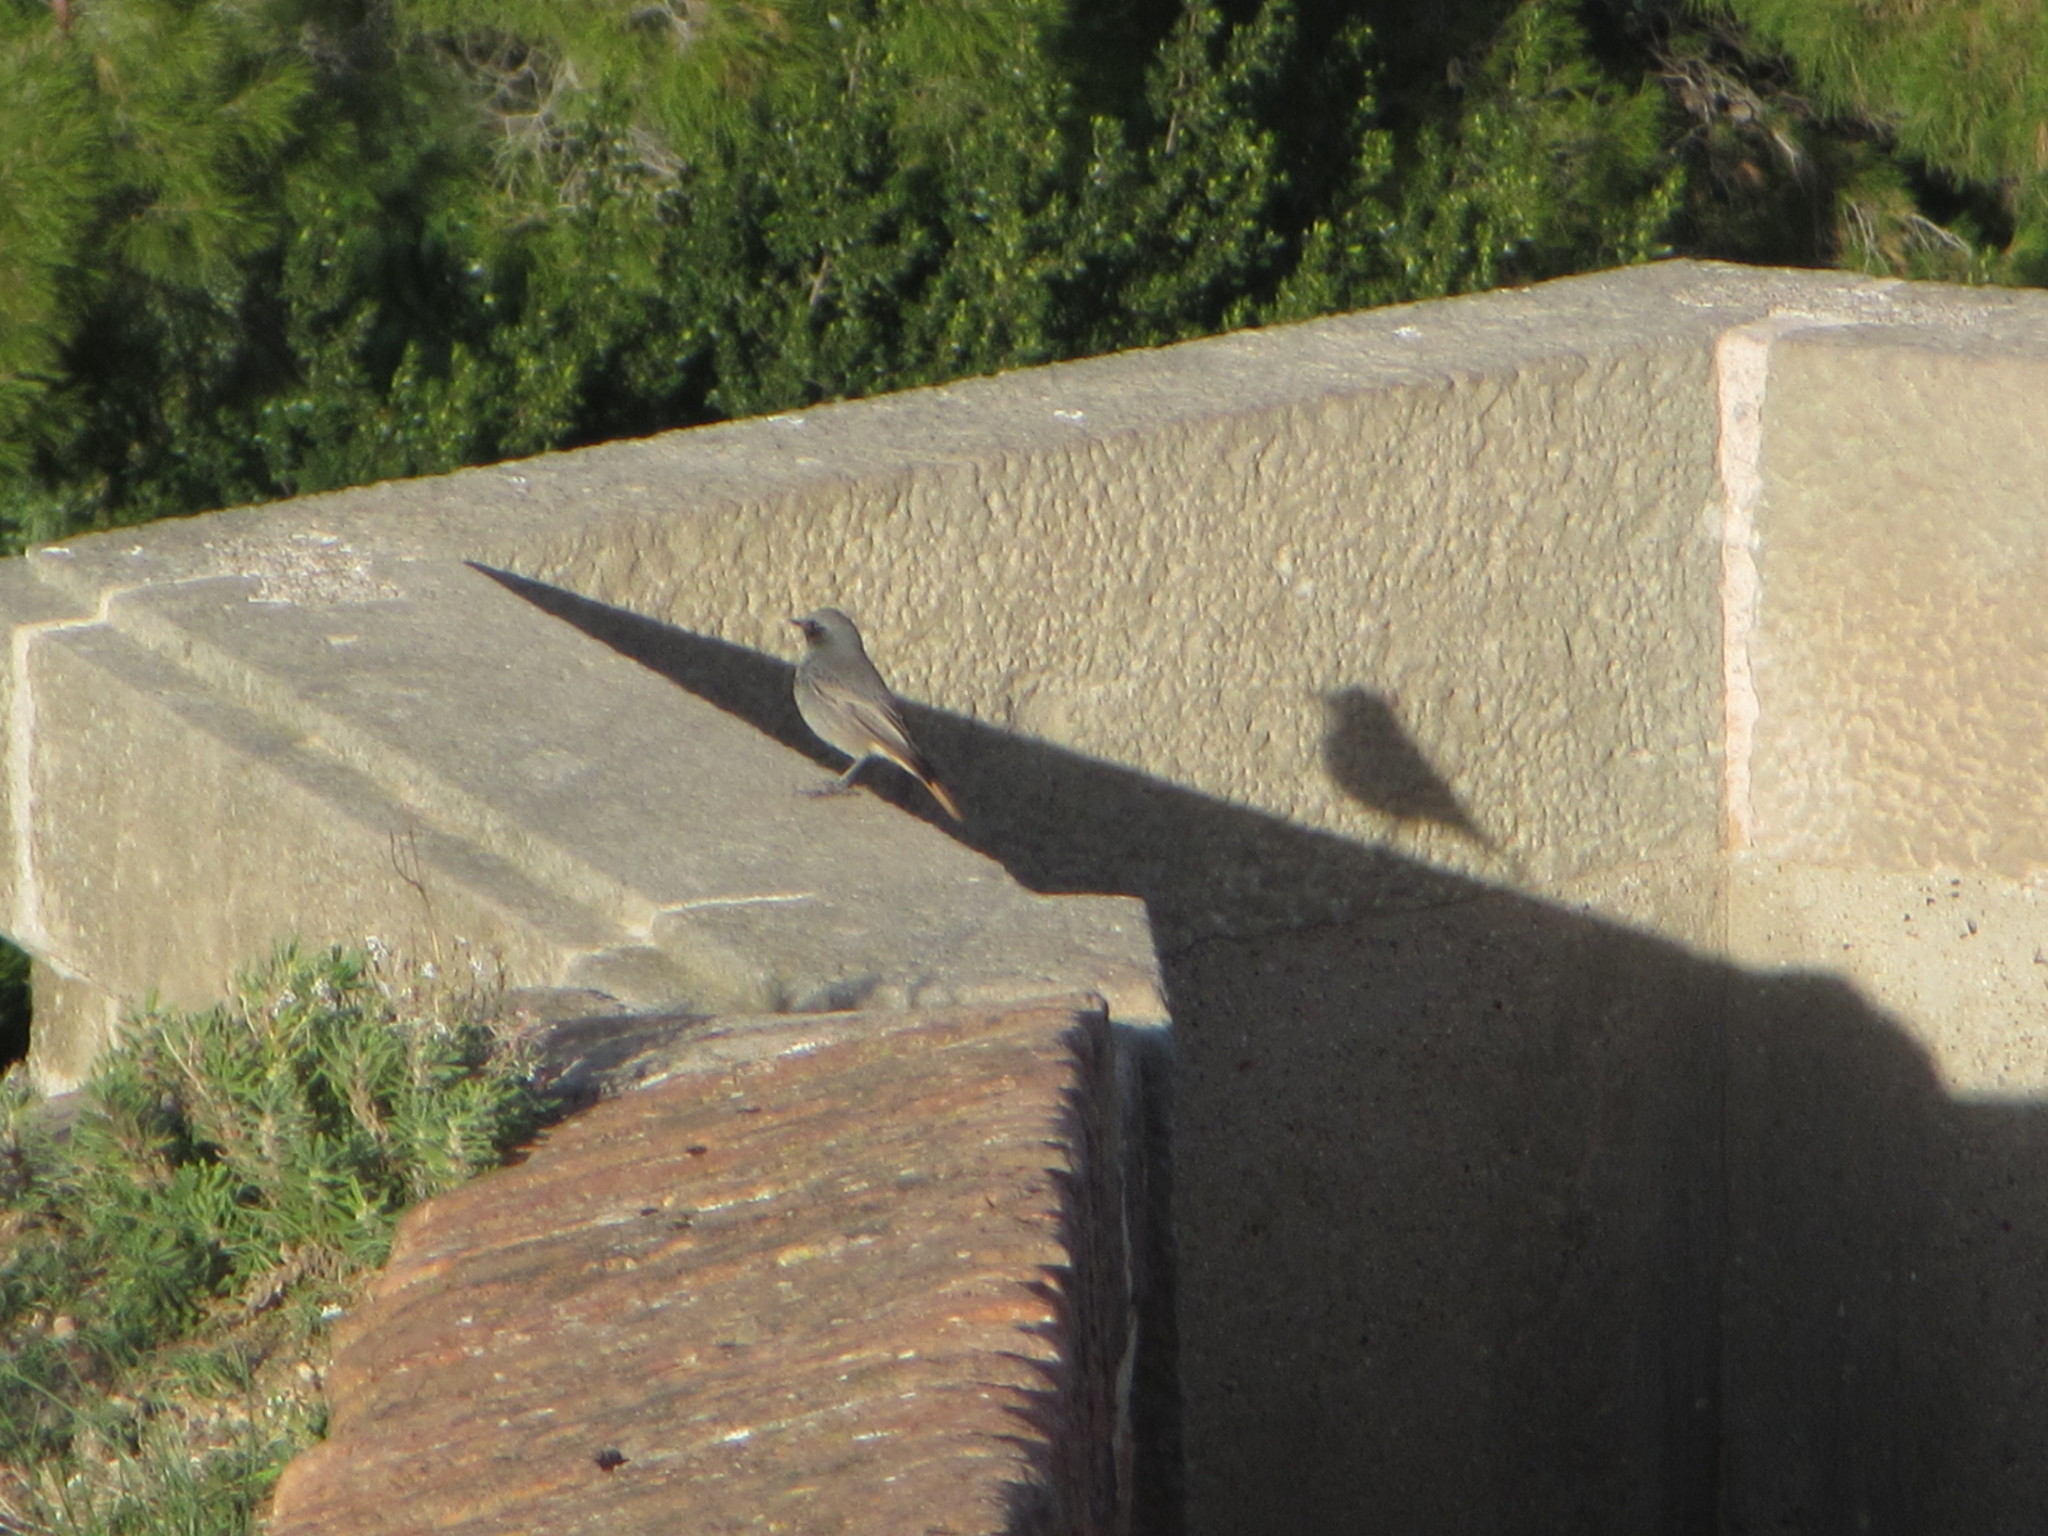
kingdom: Animalia
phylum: Chordata
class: Aves
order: Passeriformes
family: Muscicapidae
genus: Phoenicurus
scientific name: Phoenicurus ochruros
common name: Black redstart
